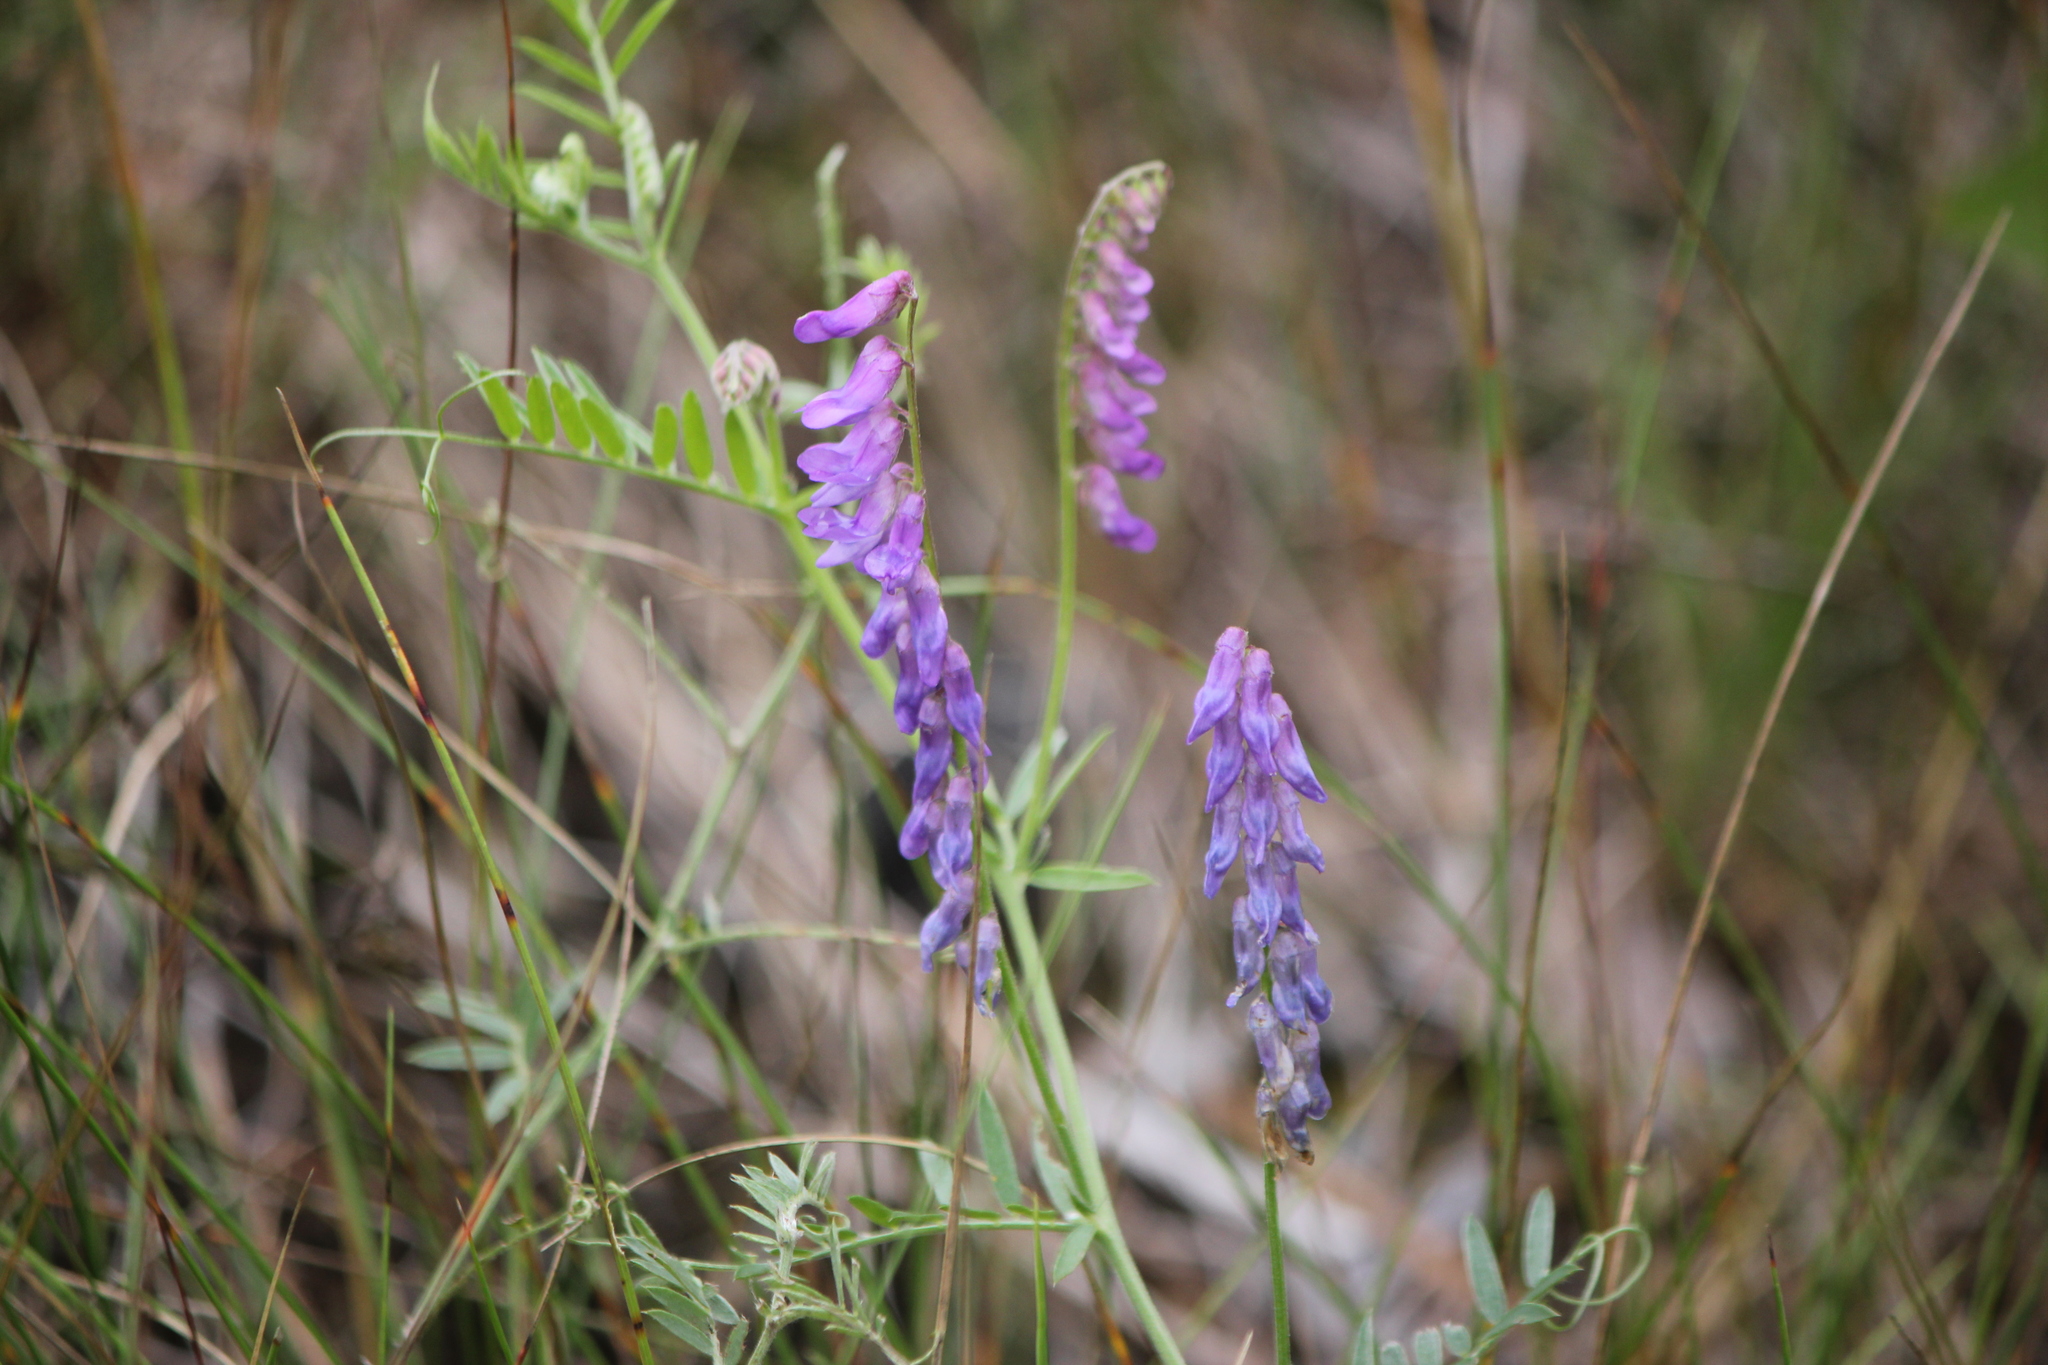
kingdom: Plantae
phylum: Tracheophyta
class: Magnoliopsida
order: Fabales
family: Fabaceae
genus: Vicia
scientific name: Vicia cracca
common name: Bird vetch
